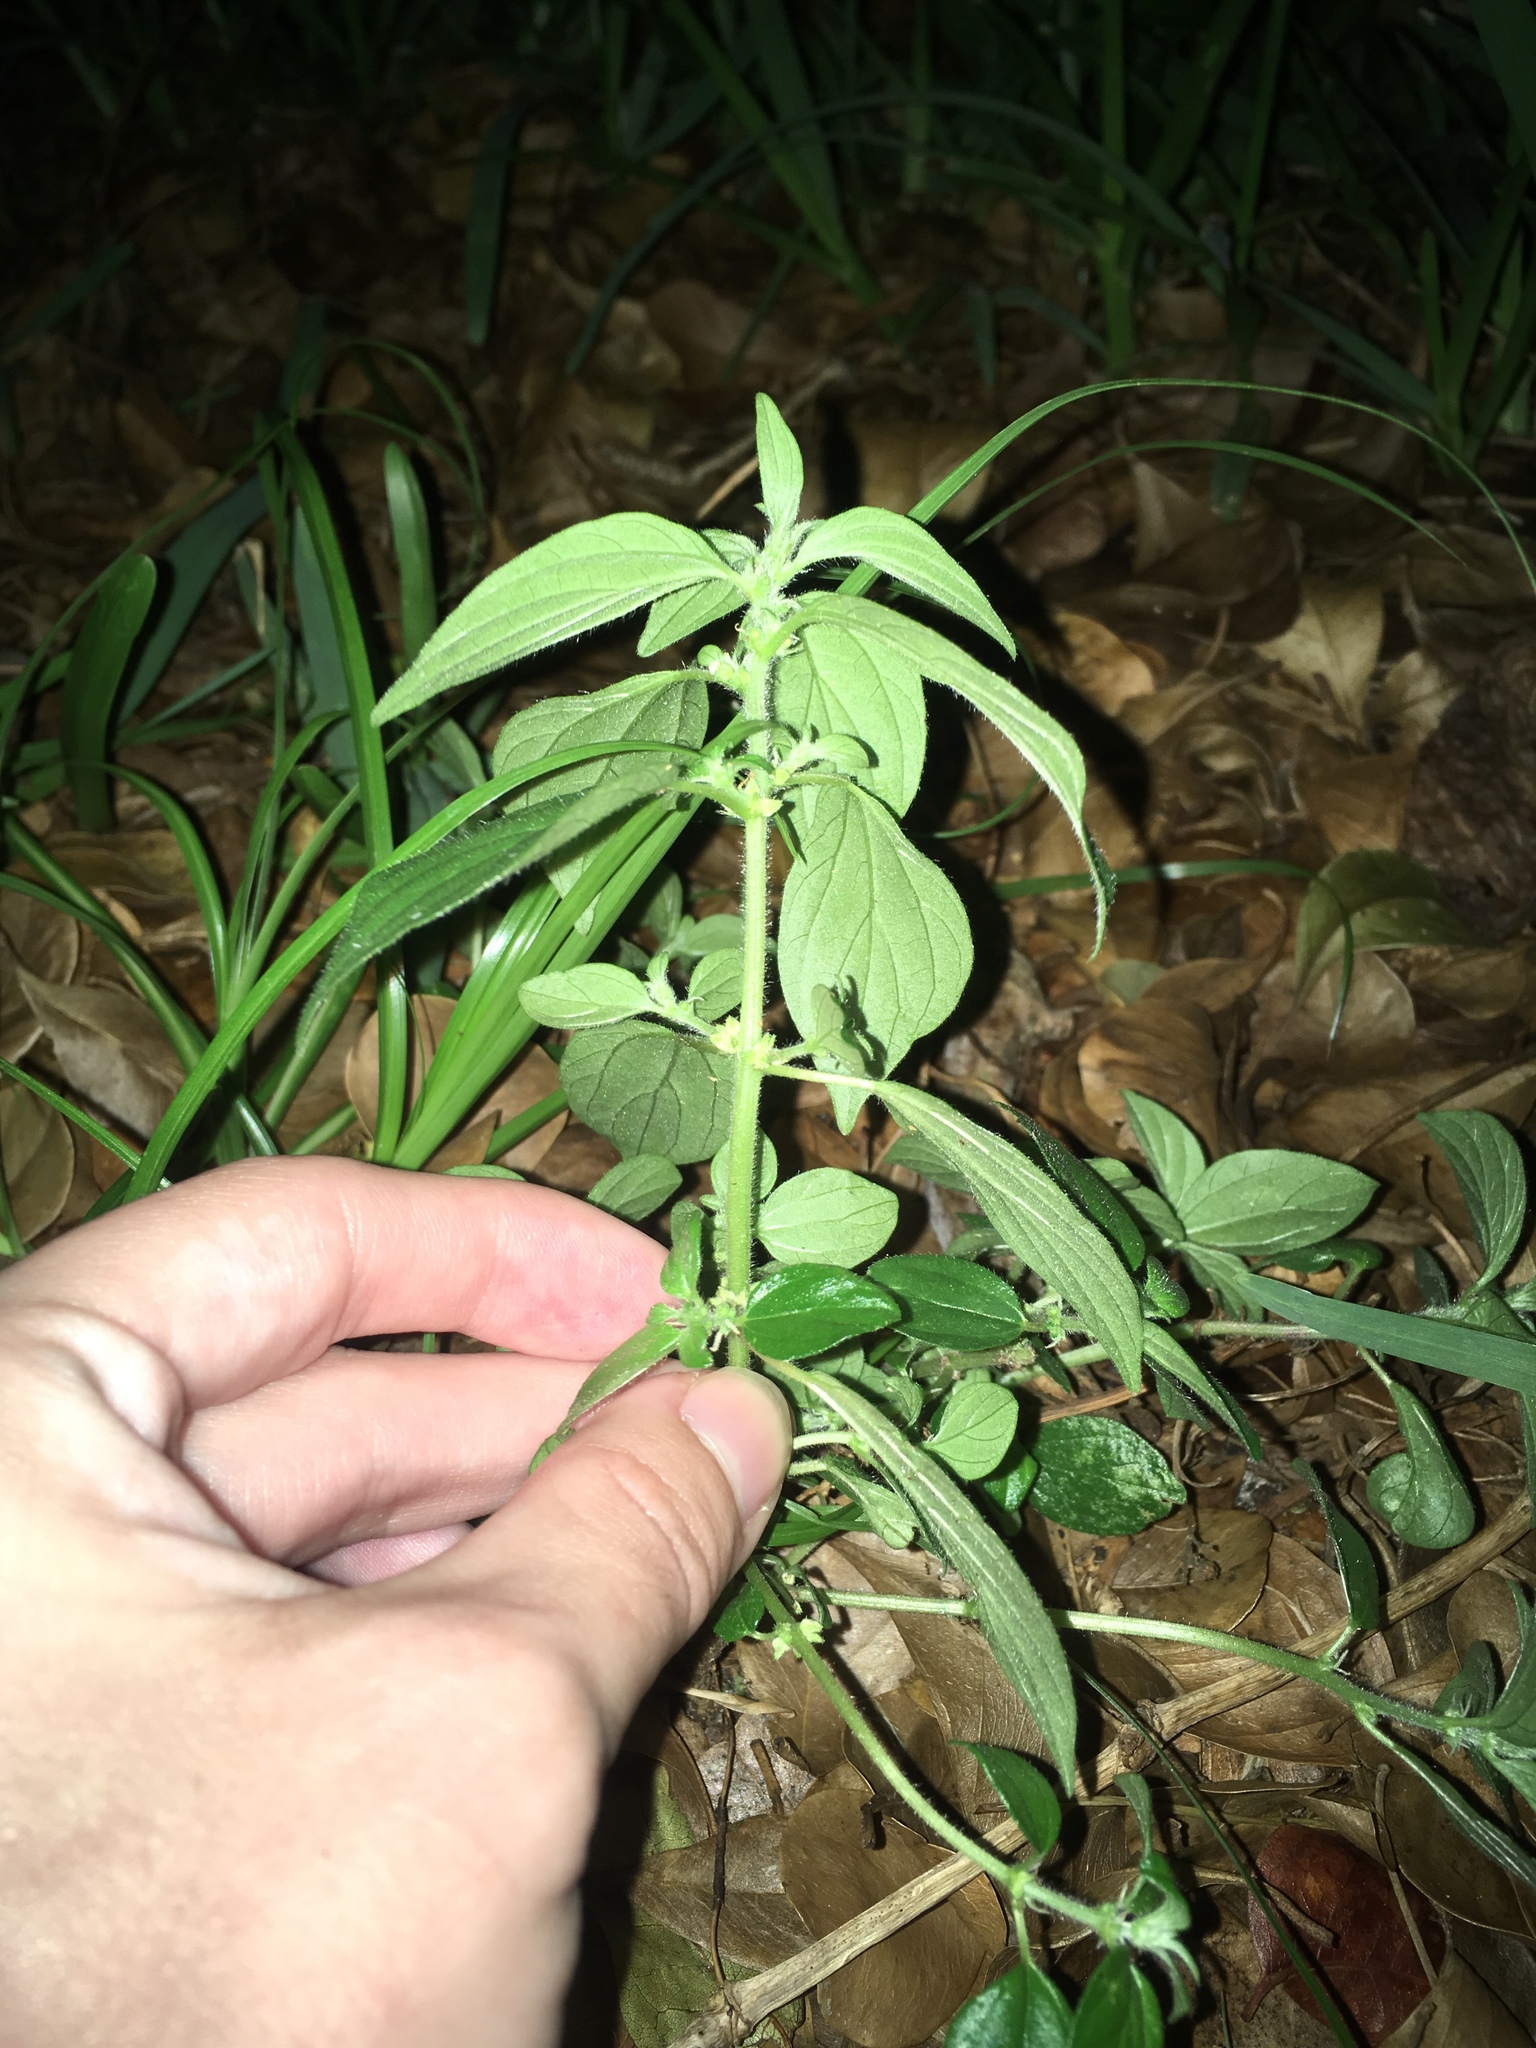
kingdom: Plantae
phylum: Tracheophyta
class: Magnoliopsida
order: Rosales
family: Urticaceae
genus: Pouzolzia
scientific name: Pouzolzia zeylanica
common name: Graceful pouzolzsbush
